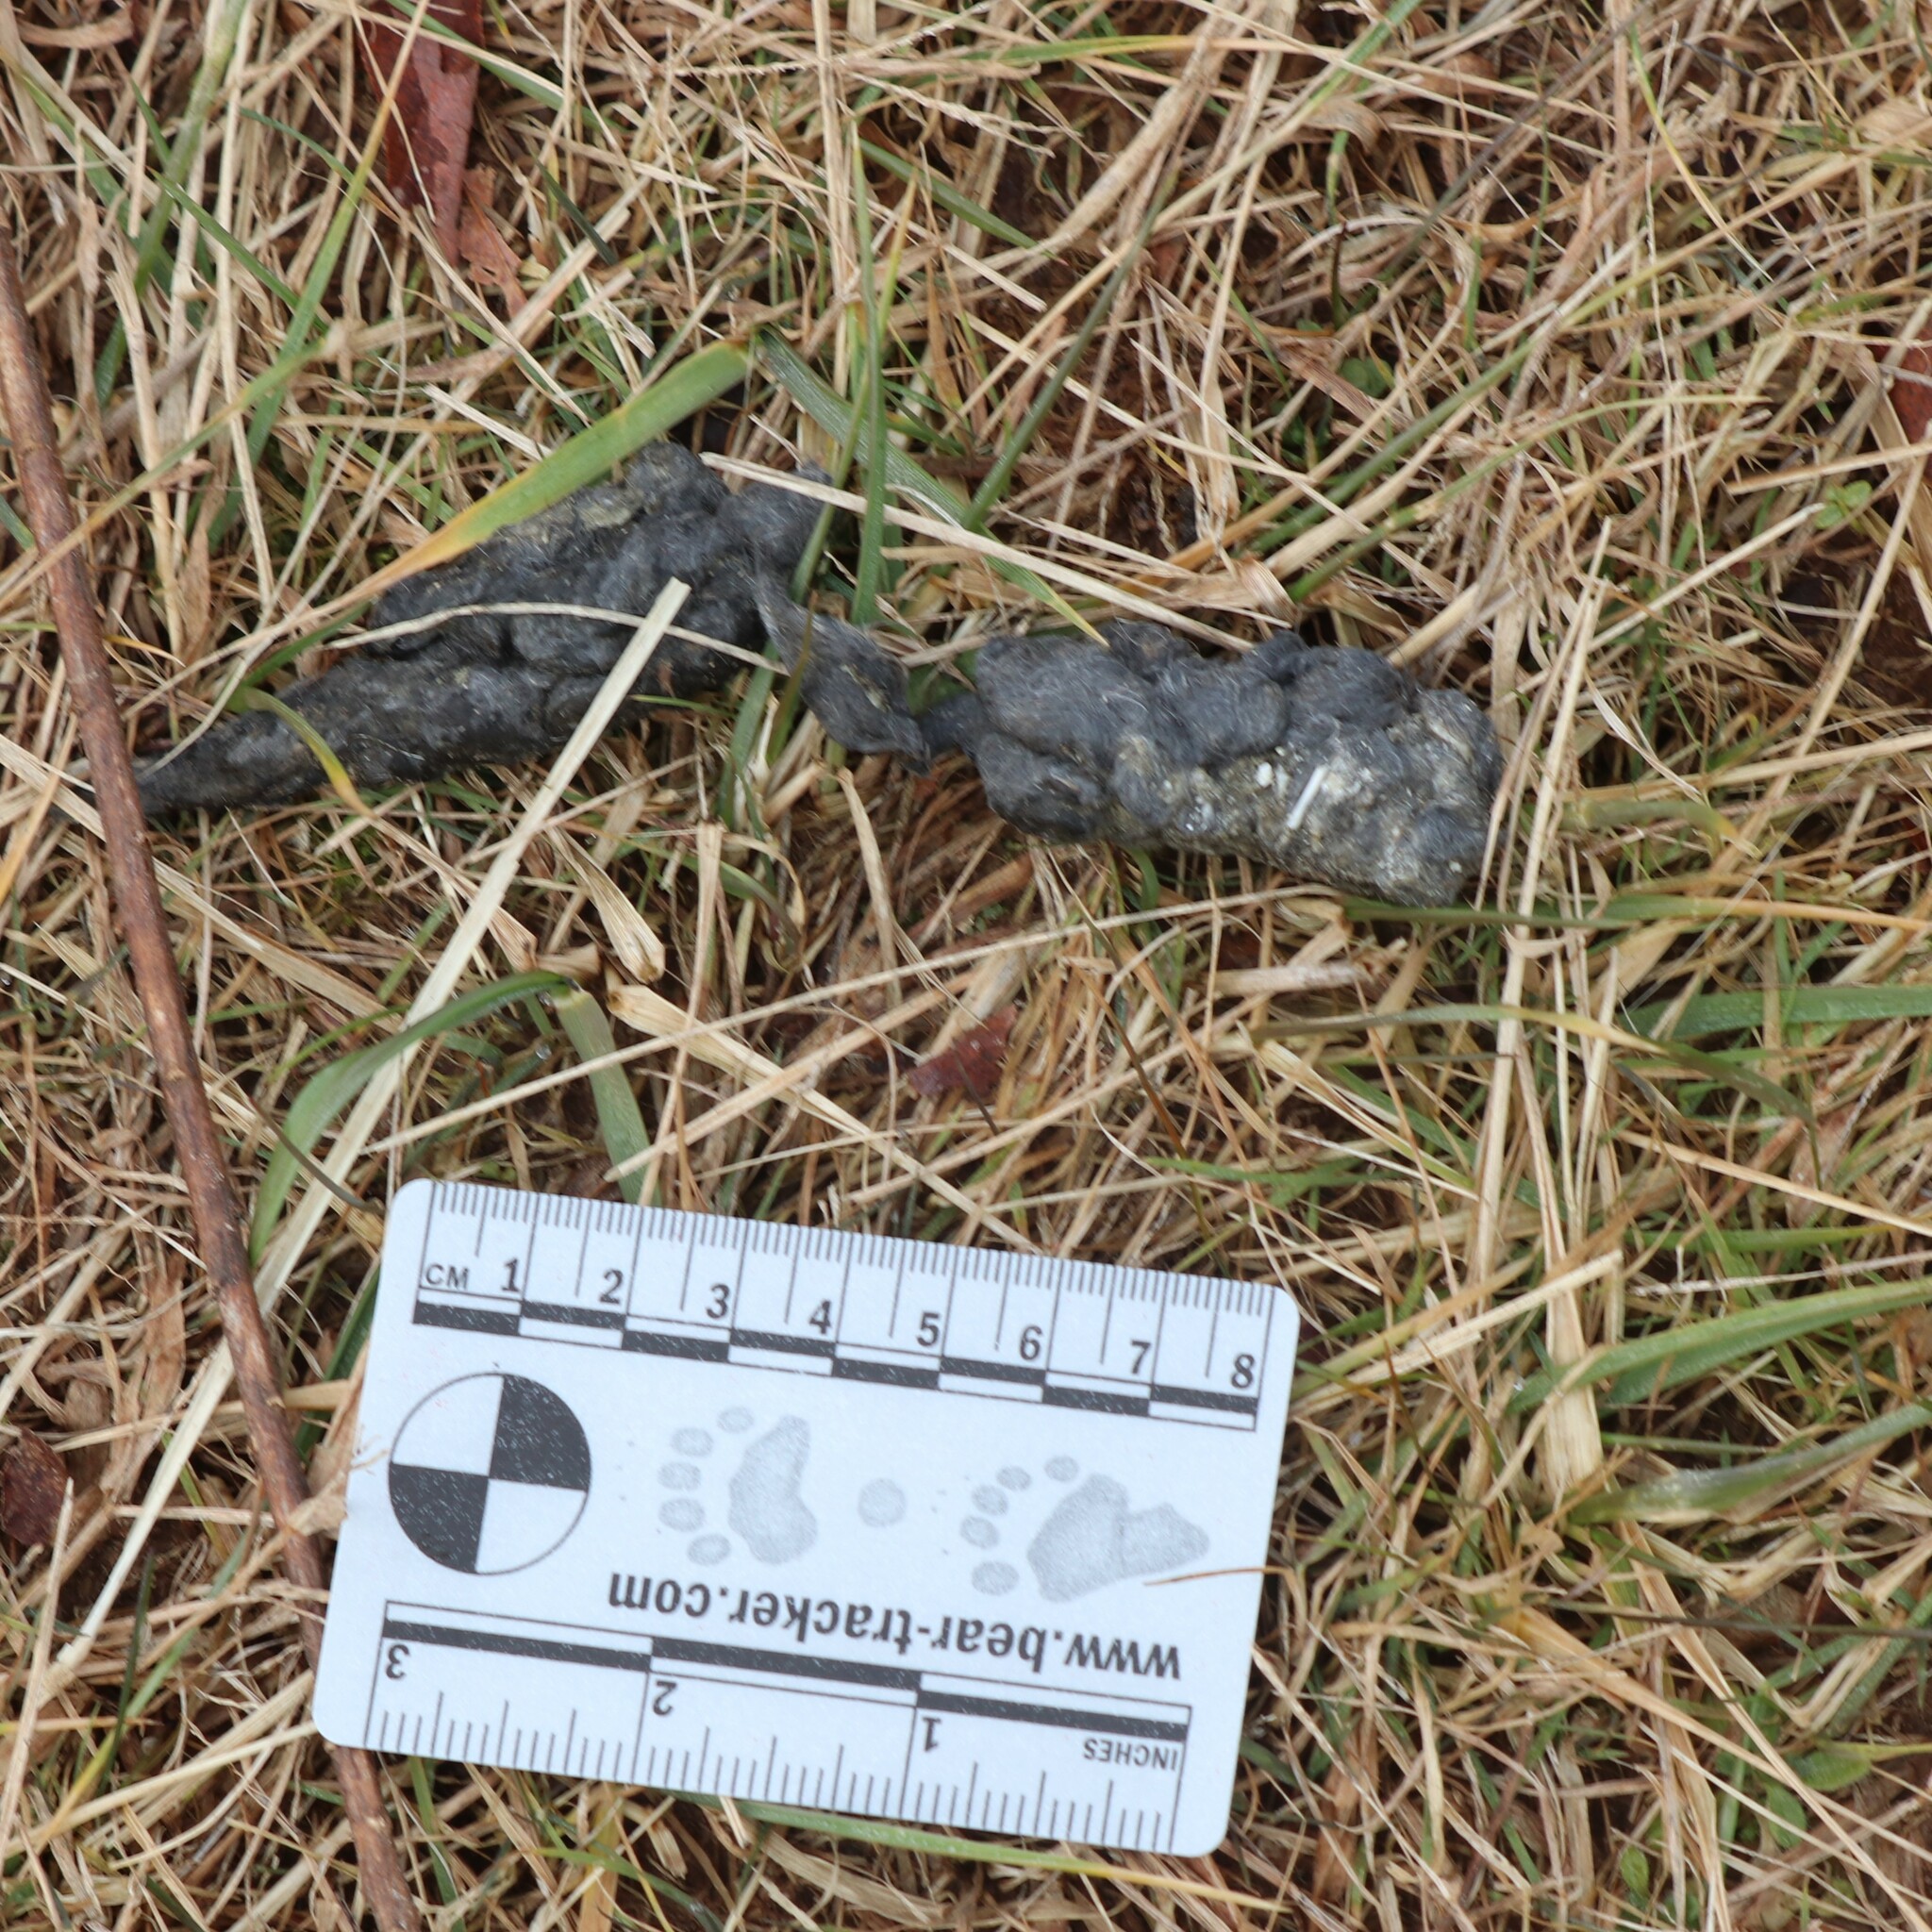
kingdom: Animalia
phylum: Chordata
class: Mammalia
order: Carnivora
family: Canidae
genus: Canis
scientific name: Canis latrans
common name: Coyote
